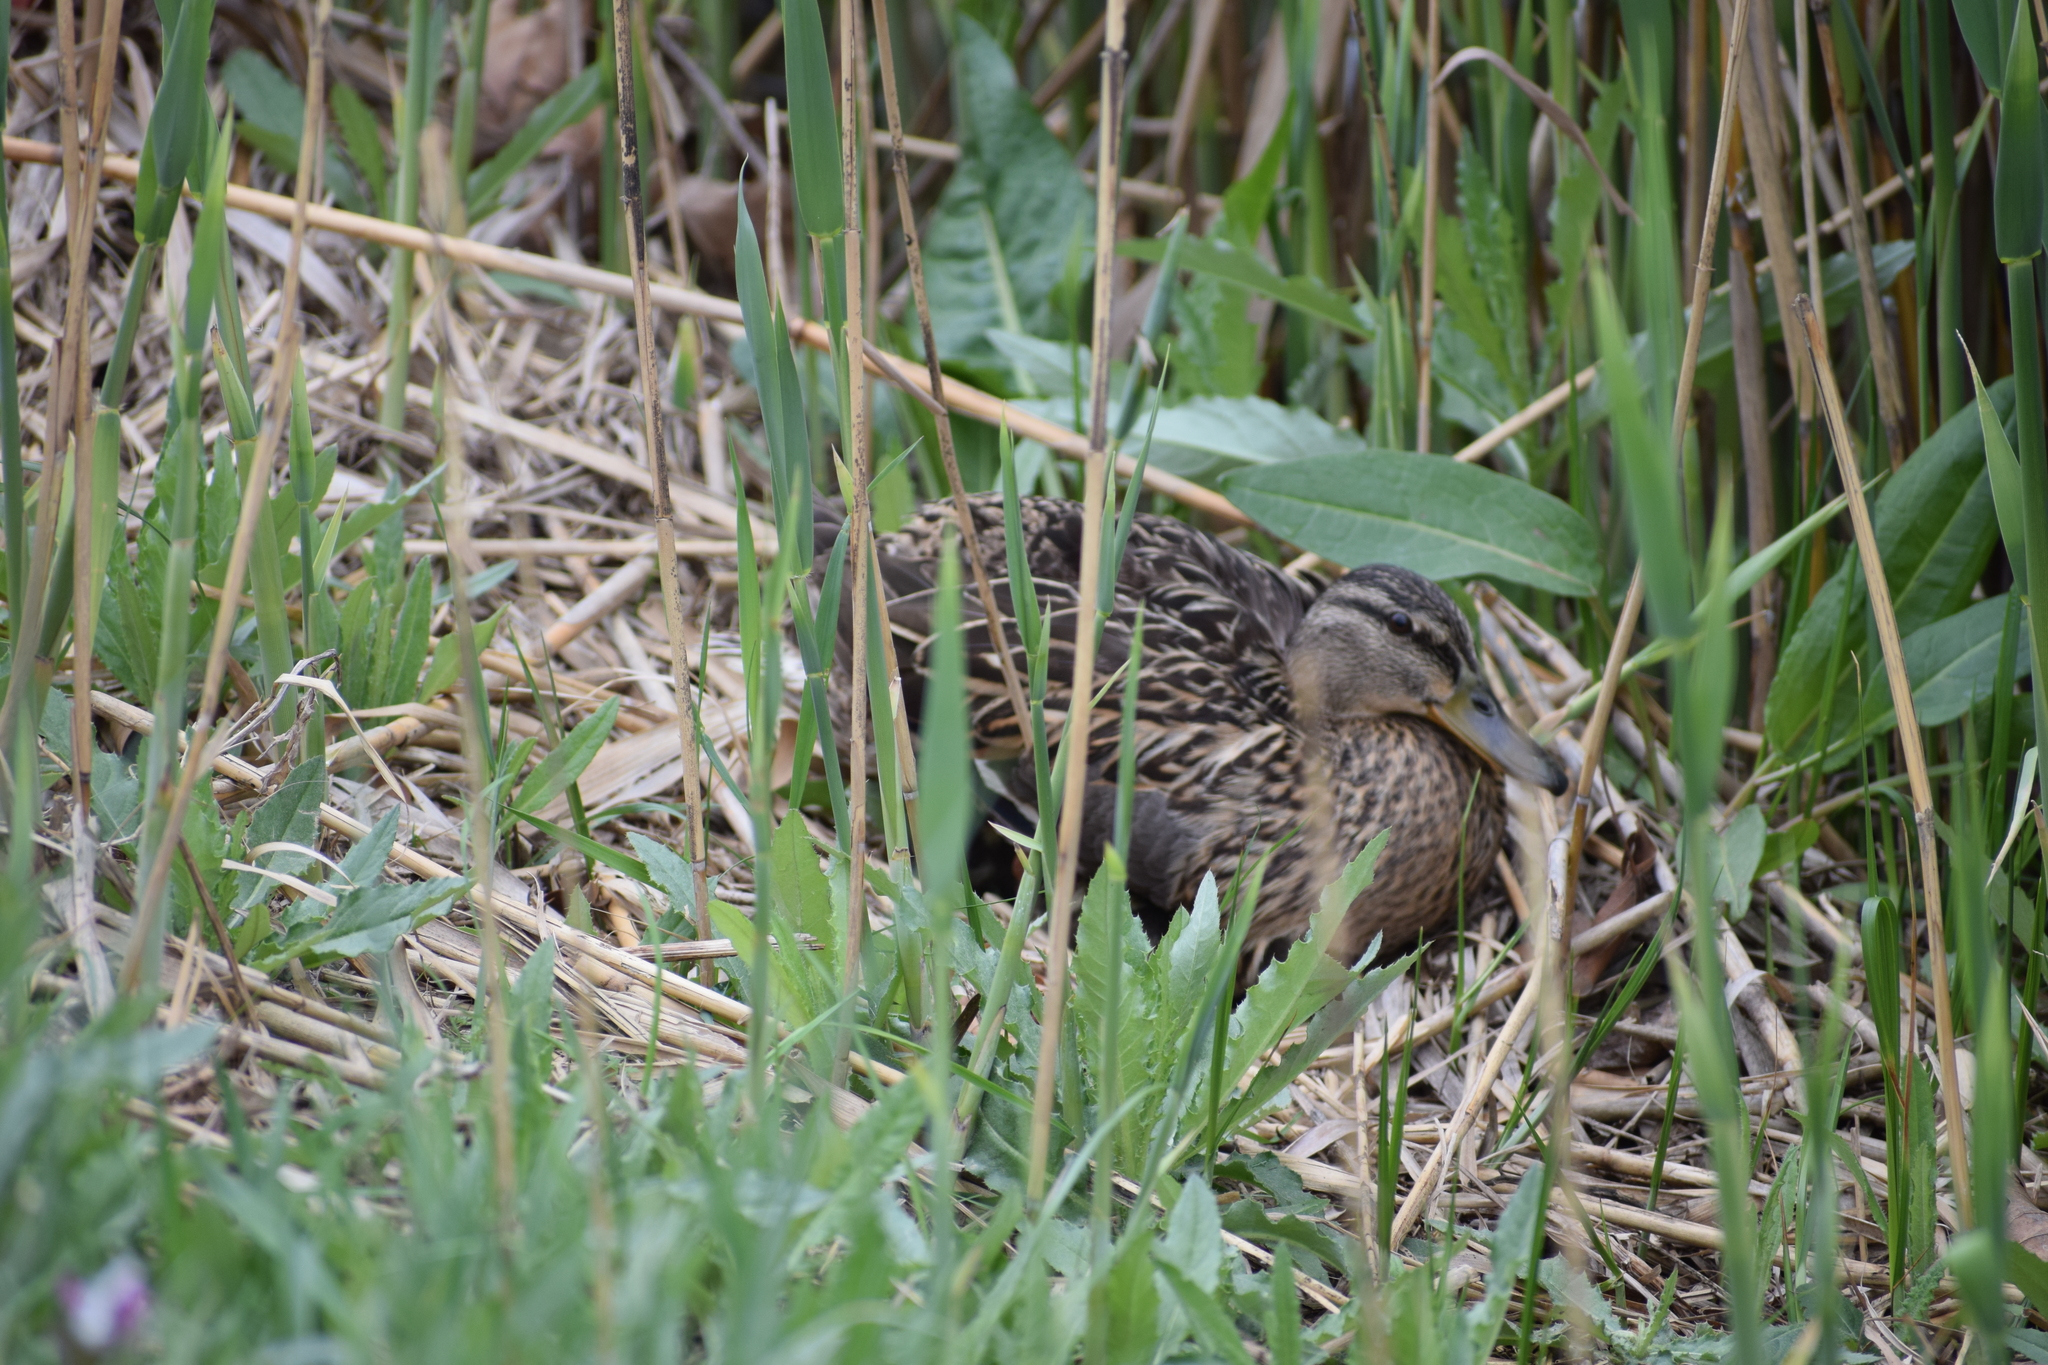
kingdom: Animalia
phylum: Chordata
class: Aves
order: Anseriformes
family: Anatidae
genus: Anas
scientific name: Anas platyrhynchos
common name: Mallard
